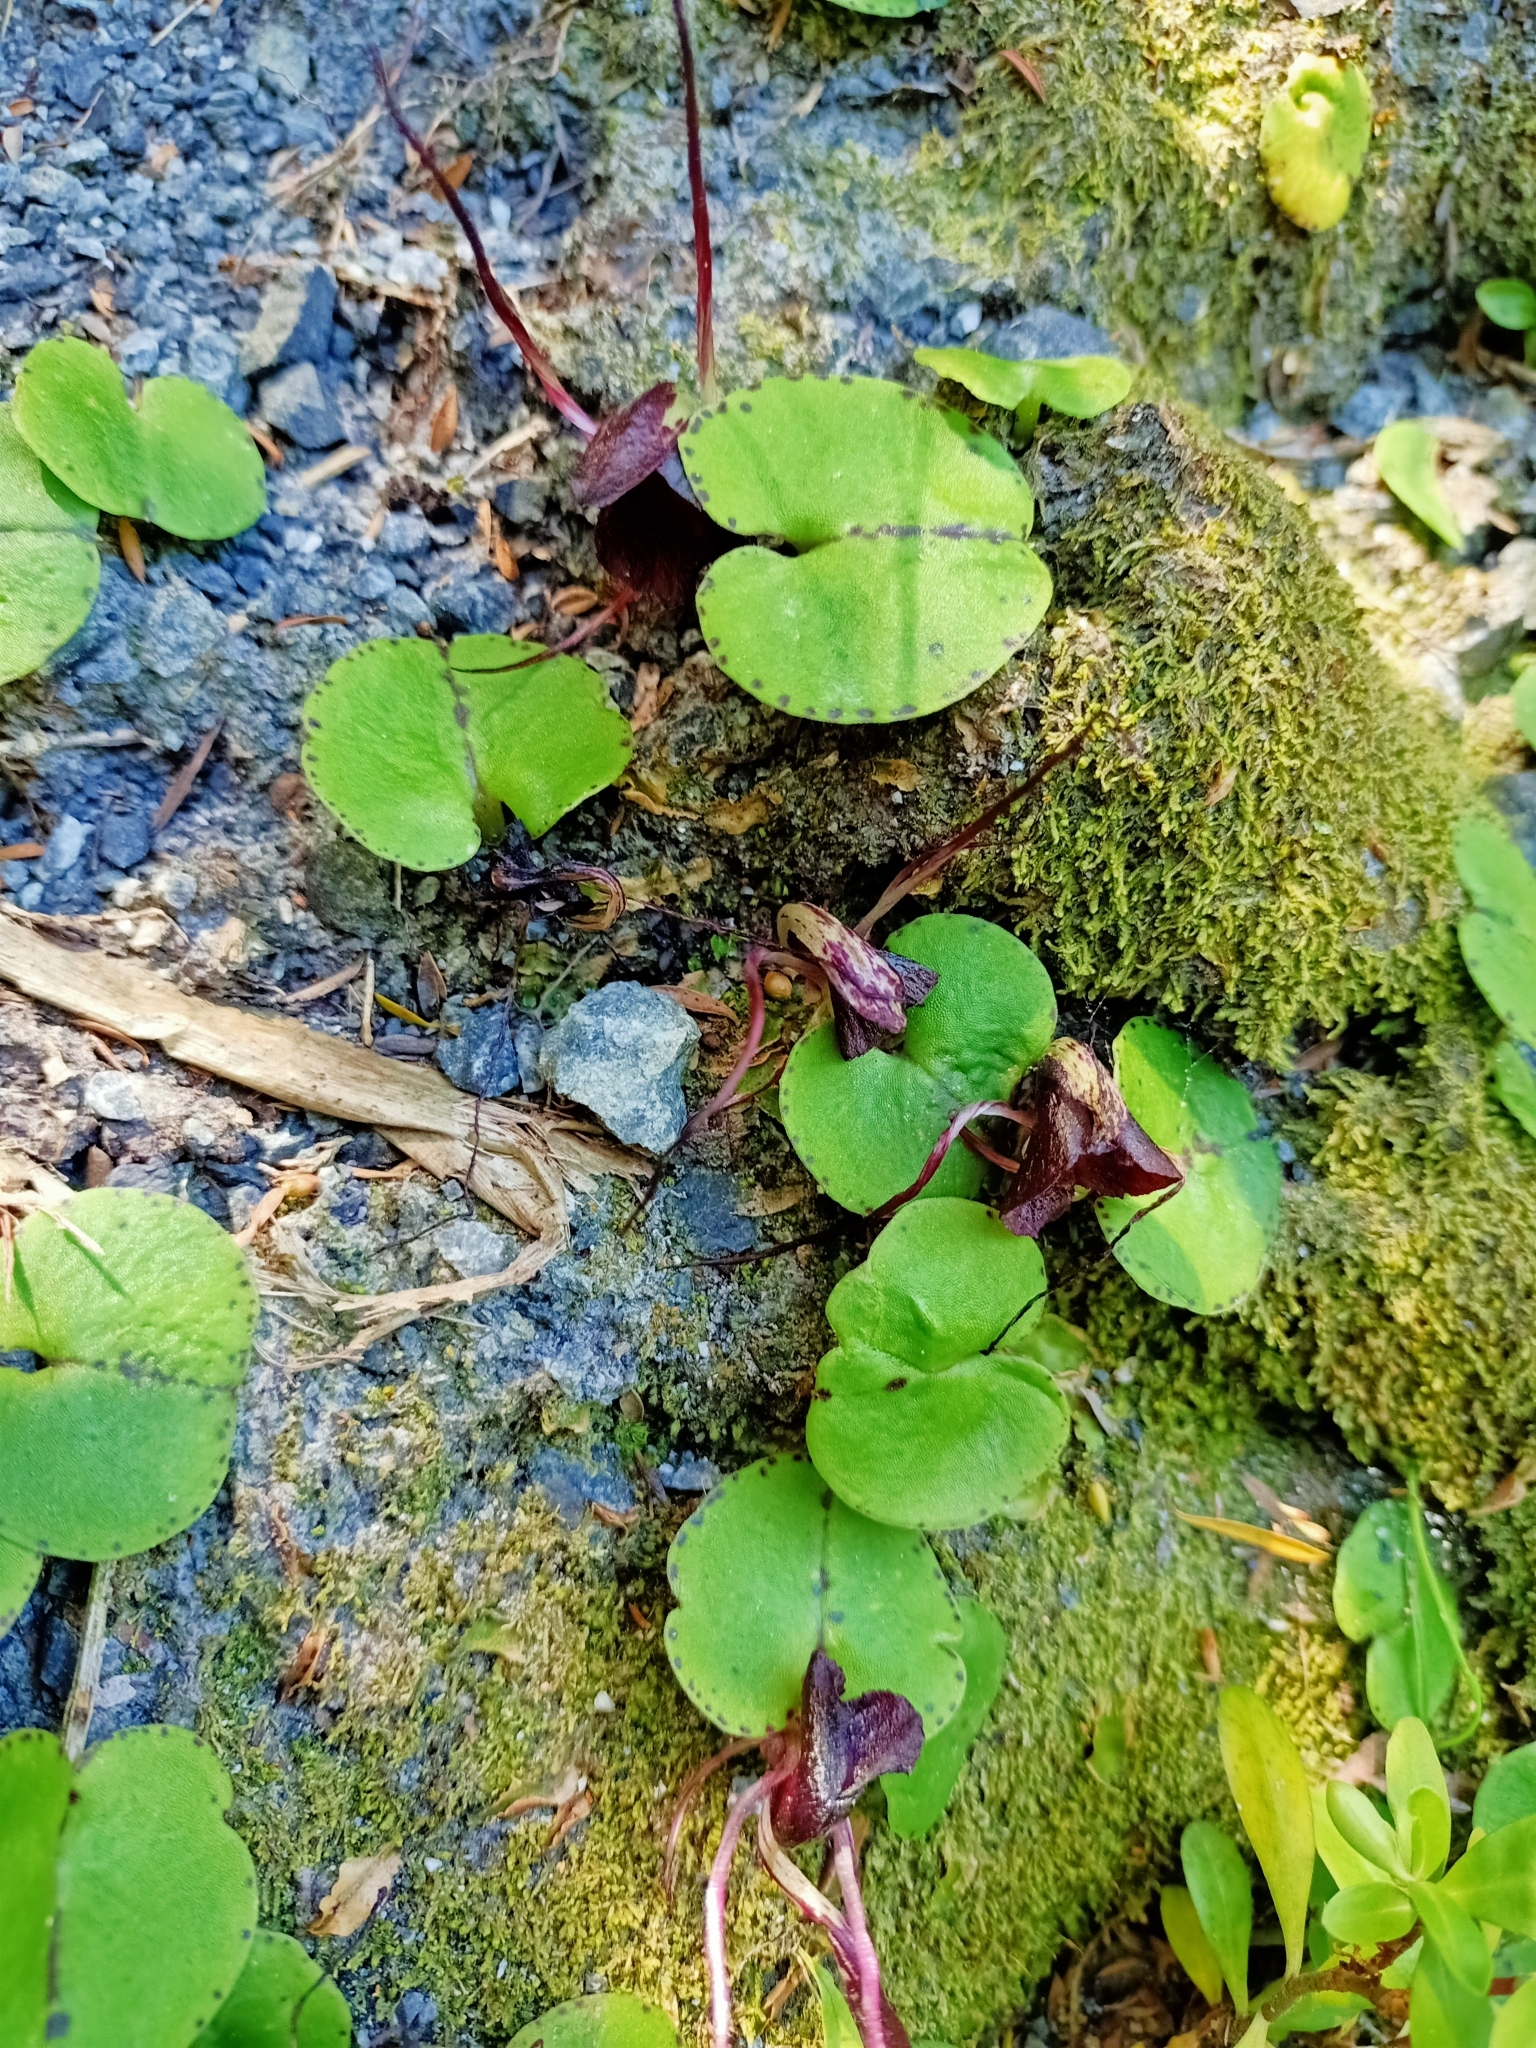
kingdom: Plantae
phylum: Tracheophyta
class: Liliopsida
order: Asparagales
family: Orchidaceae
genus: Corybas
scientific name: Corybas macranthus
